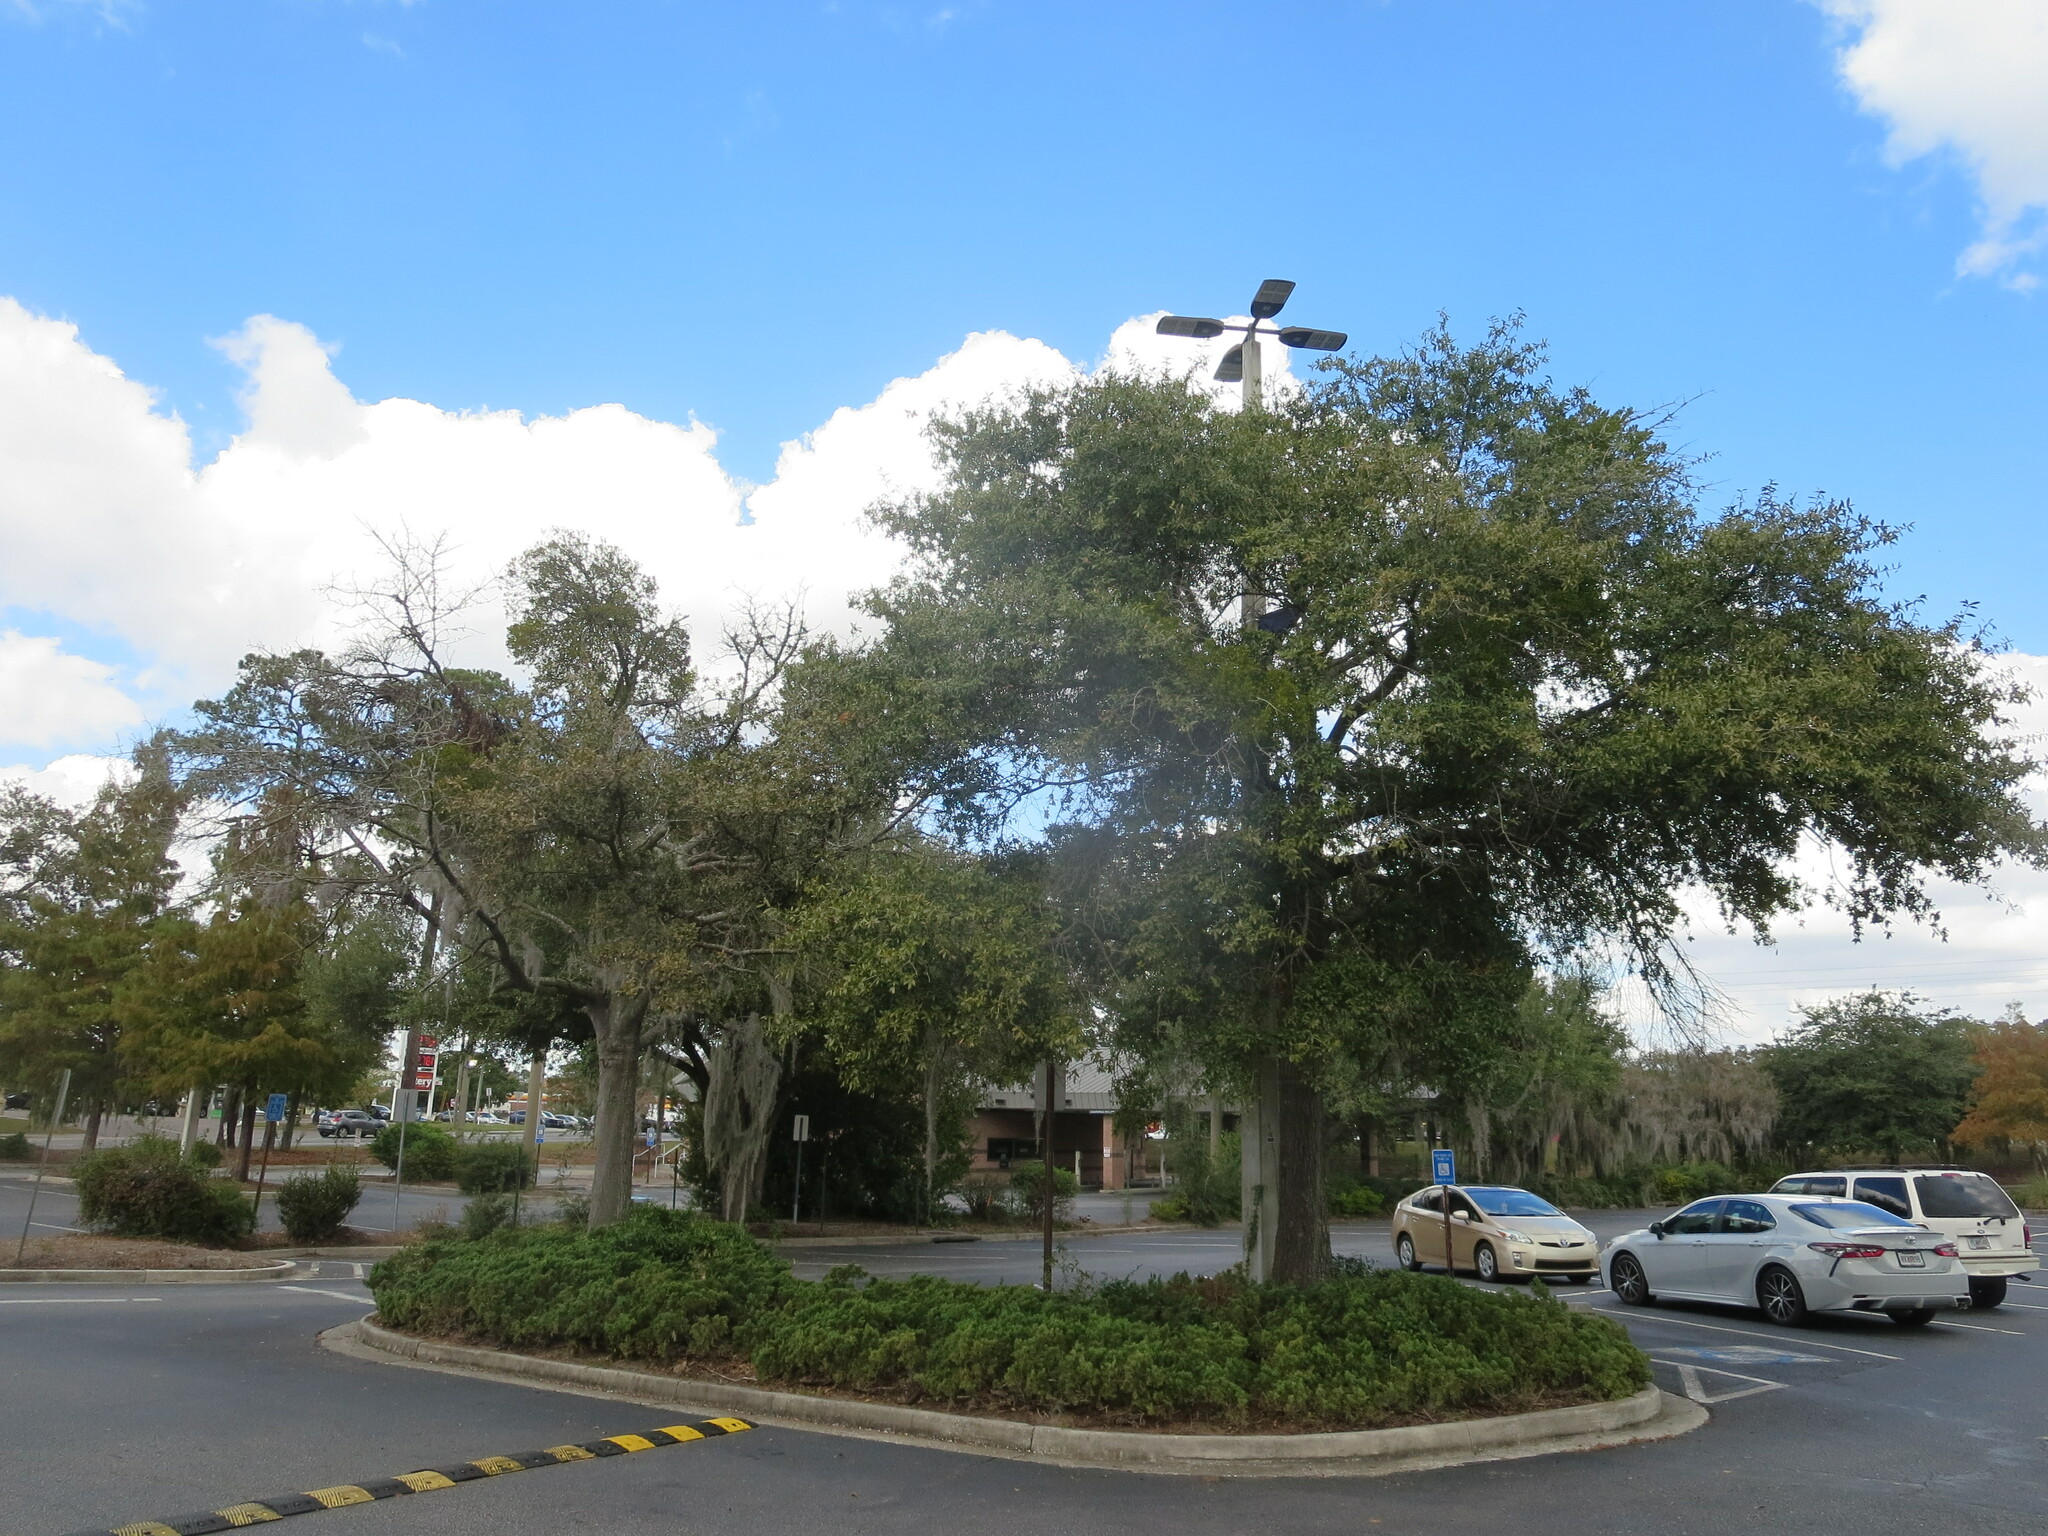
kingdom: Plantae
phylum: Tracheophyta
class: Magnoliopsida
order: Santalales
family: Viscaceae
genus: Phoradendron
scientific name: Phoradendron leucarpum
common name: Pacific mistletoe
